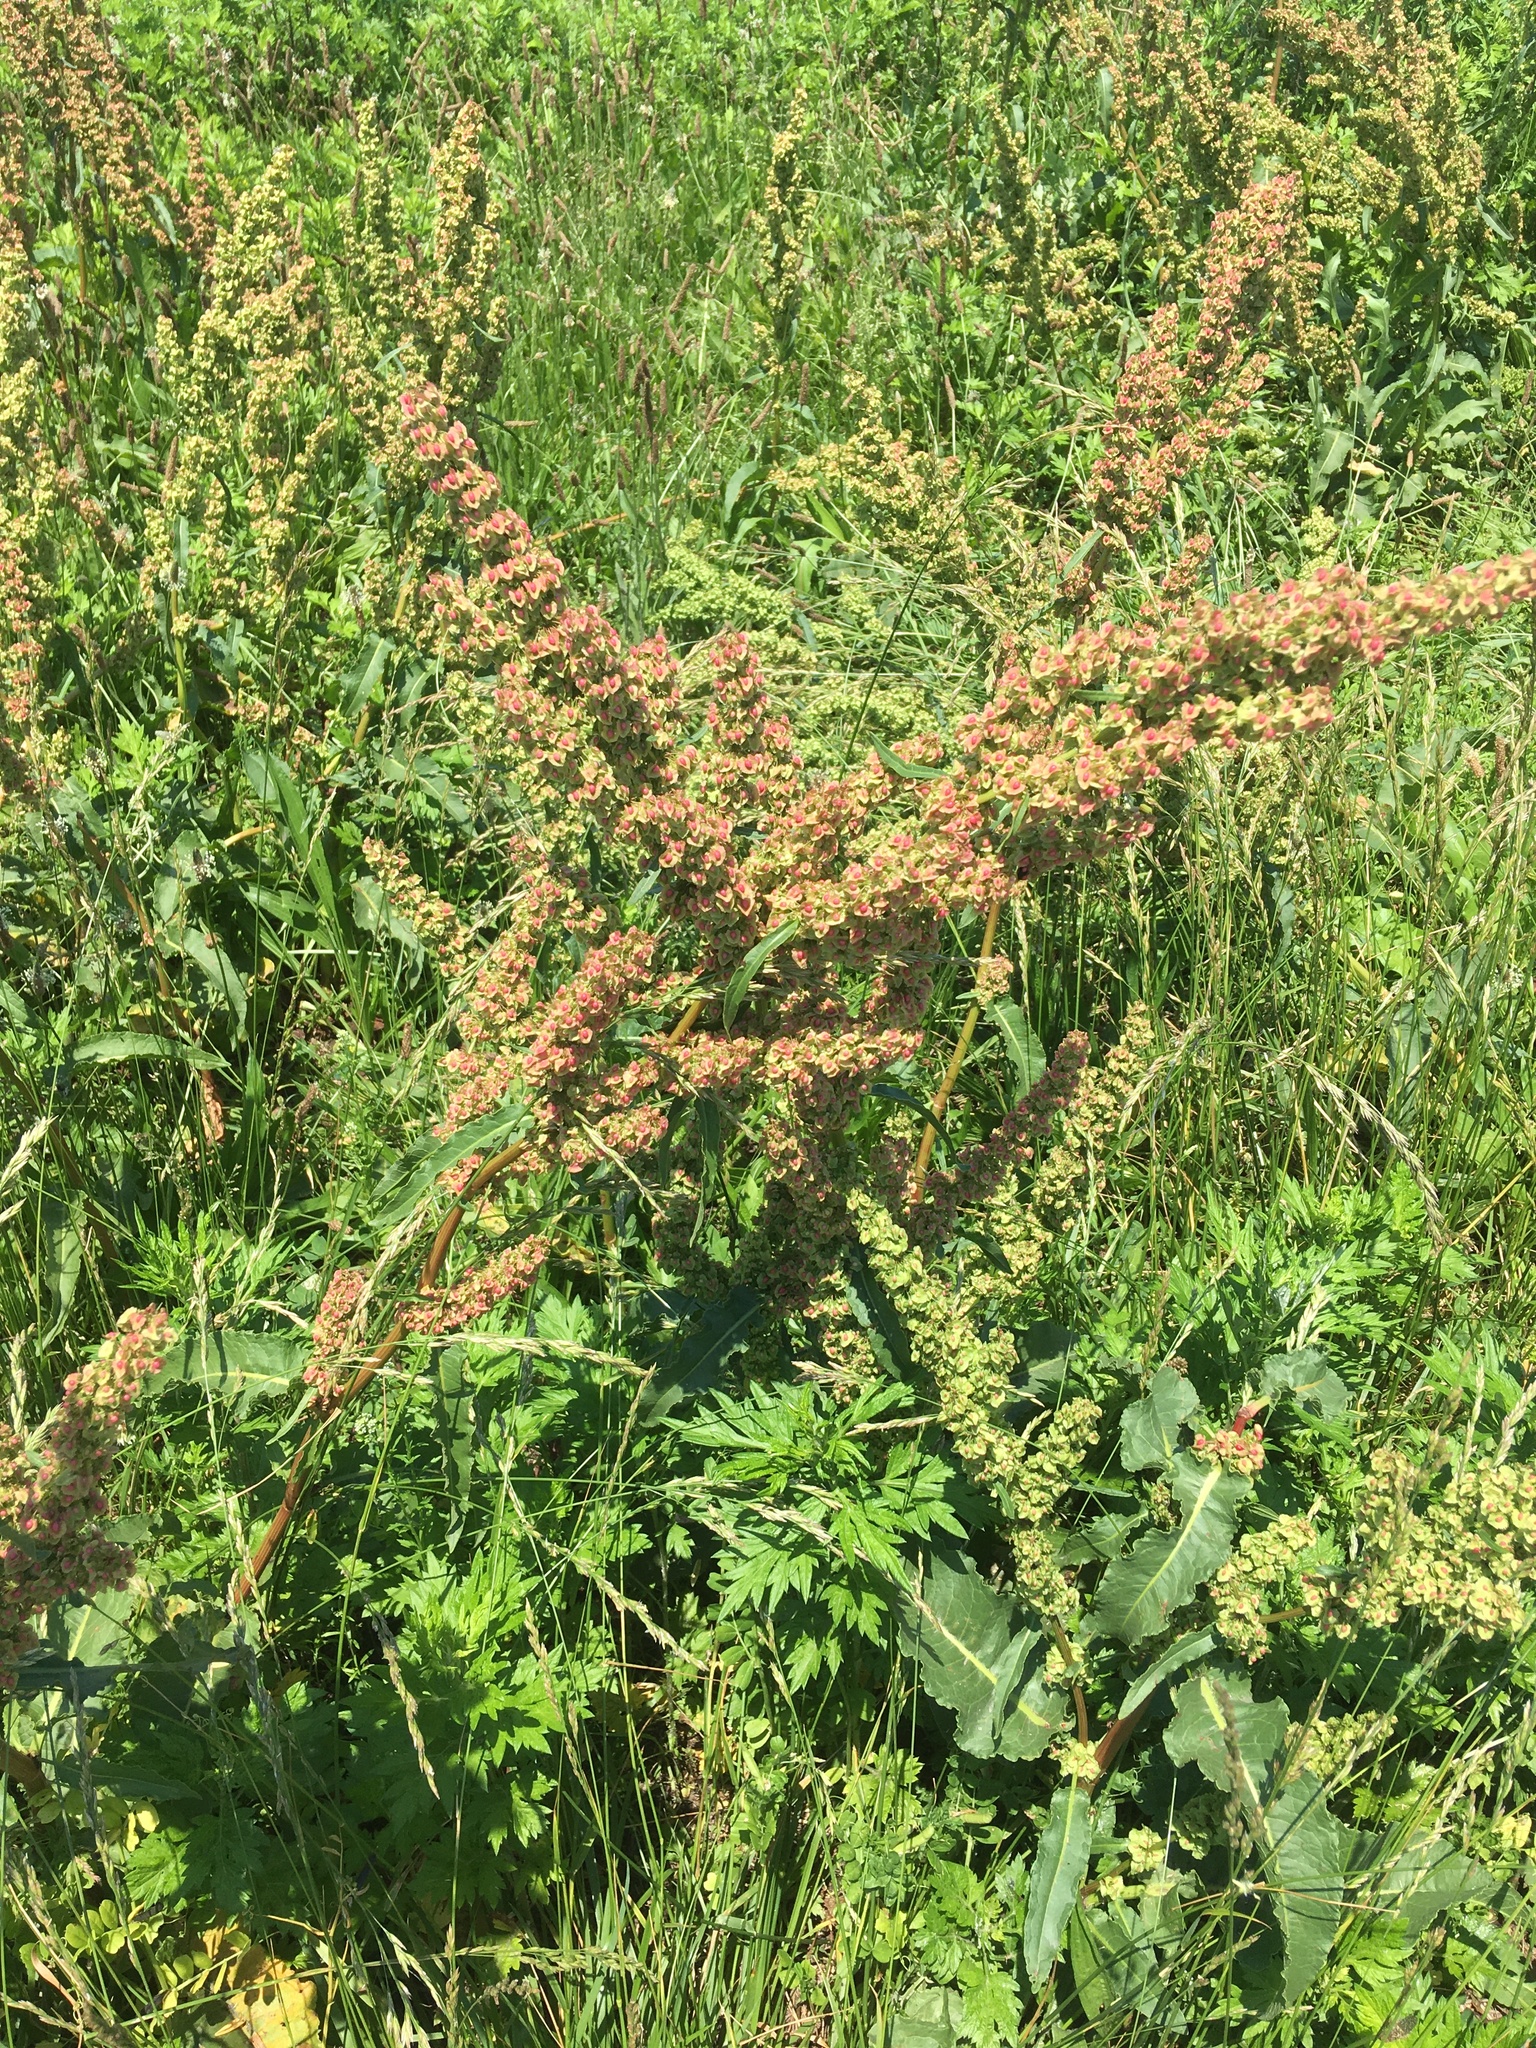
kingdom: Plantae
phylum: Tracheophyta
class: Magnoliopsida
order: Caryophyllales
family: Polygonaceae
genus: Rumex
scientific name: Rumex crispus
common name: Curled dock
